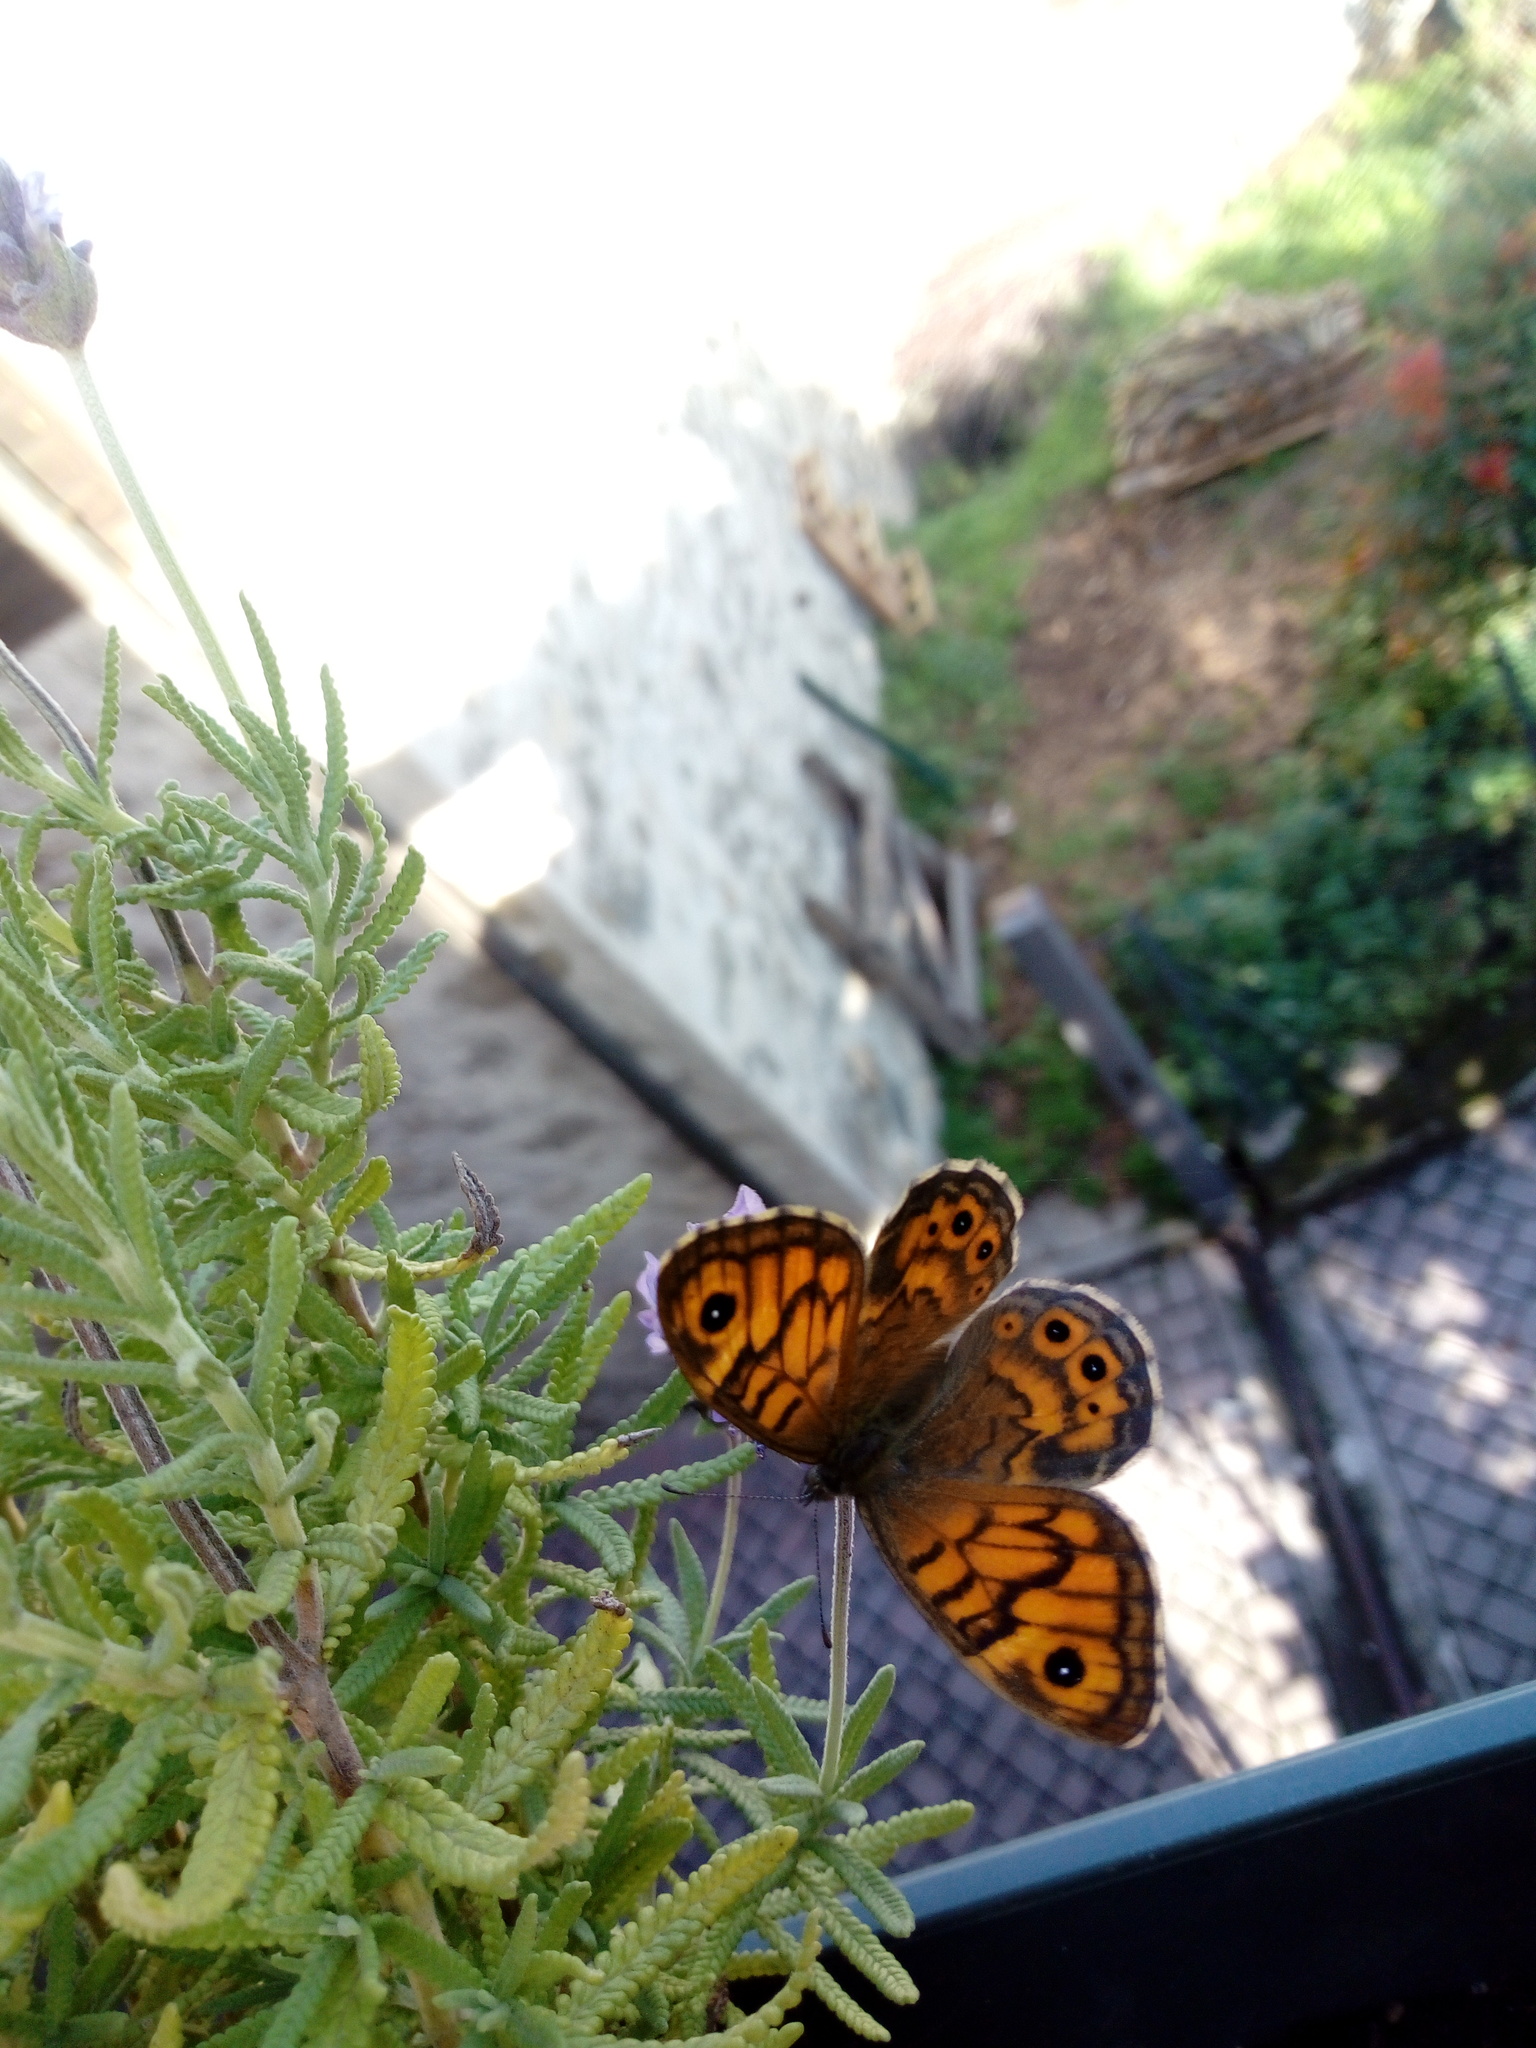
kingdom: Animalia
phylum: Arthropoda
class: Insecta
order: Lepidoptera
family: Nymphalidae
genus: Pararge
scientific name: Pararge Lasiommata megera
